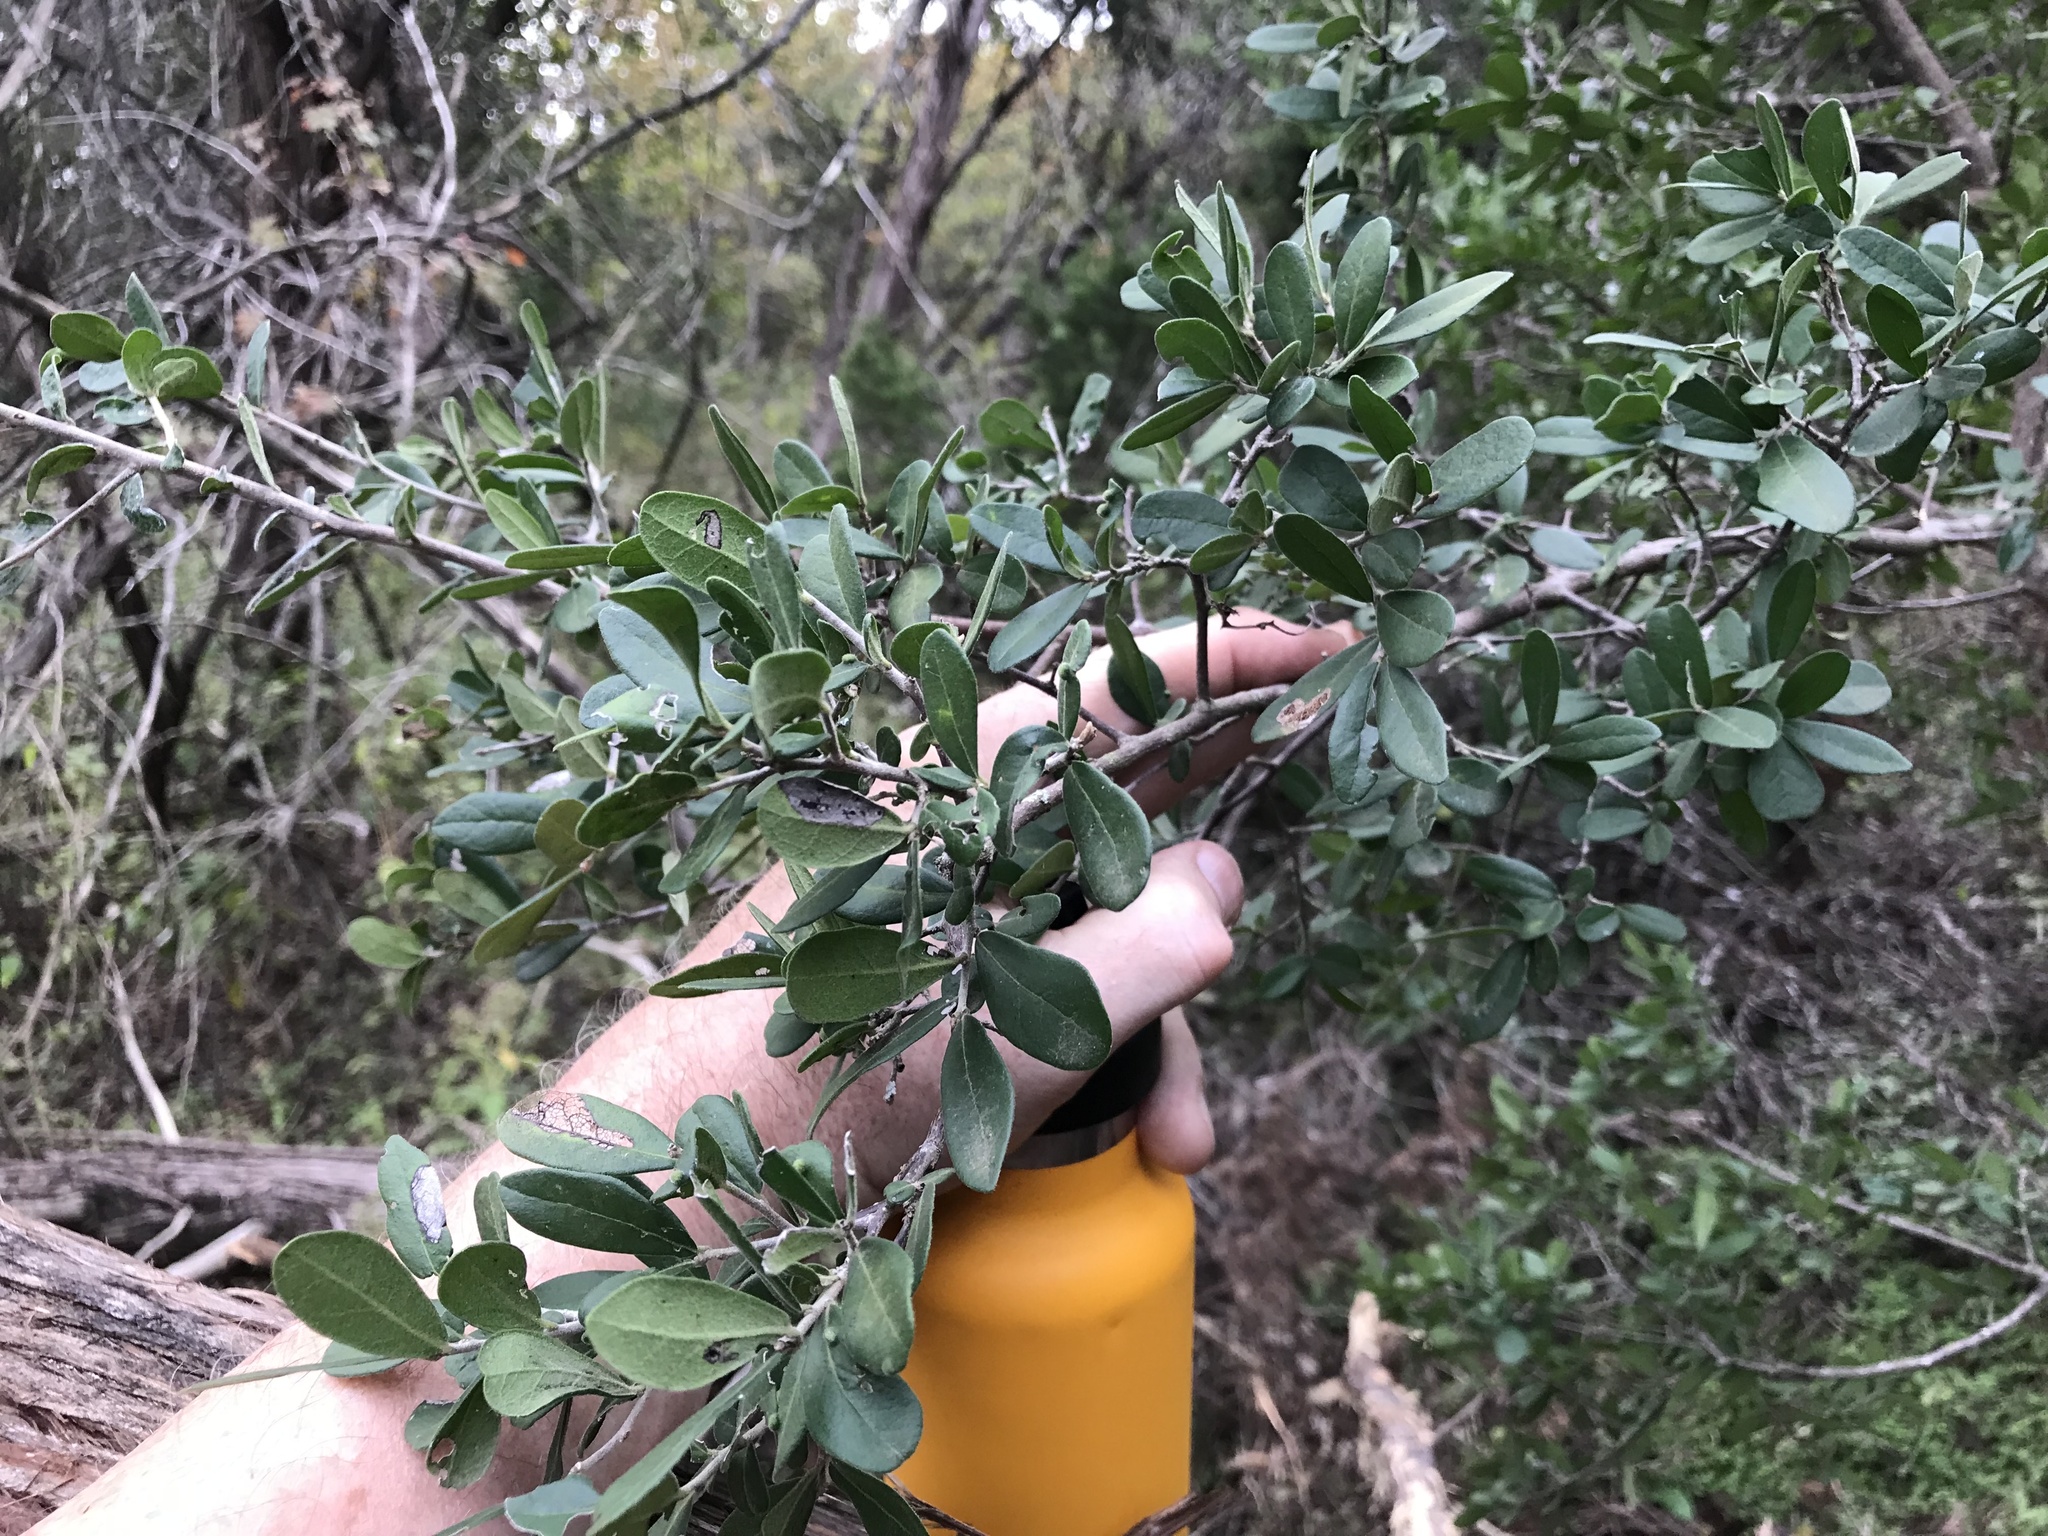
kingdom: Plantae
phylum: Tracheophyta
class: Magnoliopsida
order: Ericales
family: Ebenaceae
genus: Diospyros
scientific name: Diospyros texana
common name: Texas persimmon
